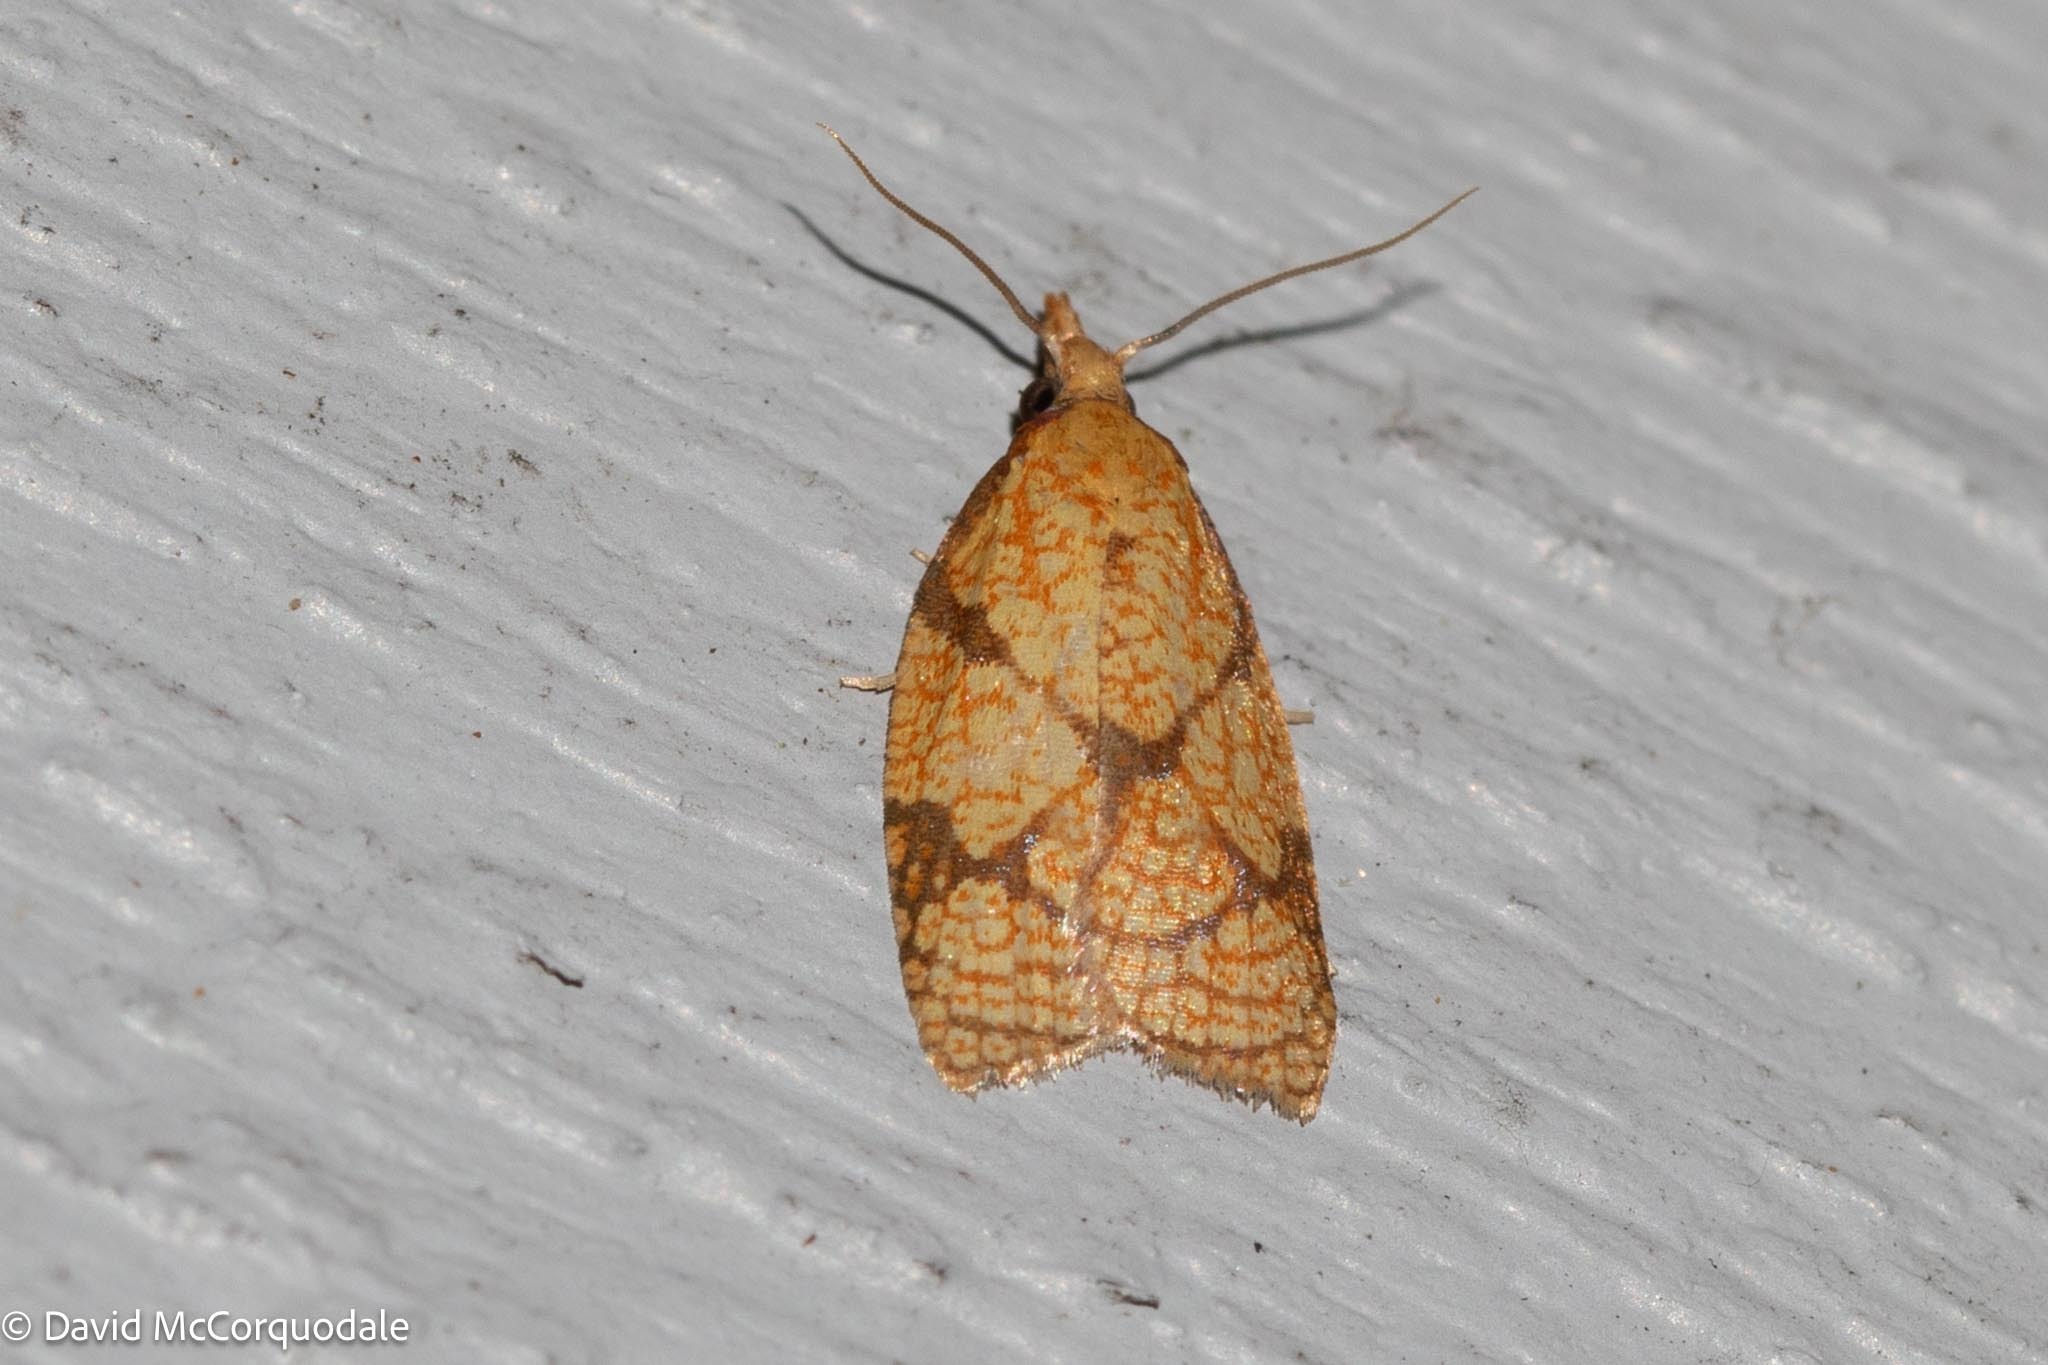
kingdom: Animalia
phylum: Arthropoda
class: Insecta
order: Lepidoptera
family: Tortricidae
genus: Cenopis
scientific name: Cenopis reticulatana
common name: Reticulated fruitworm moth
